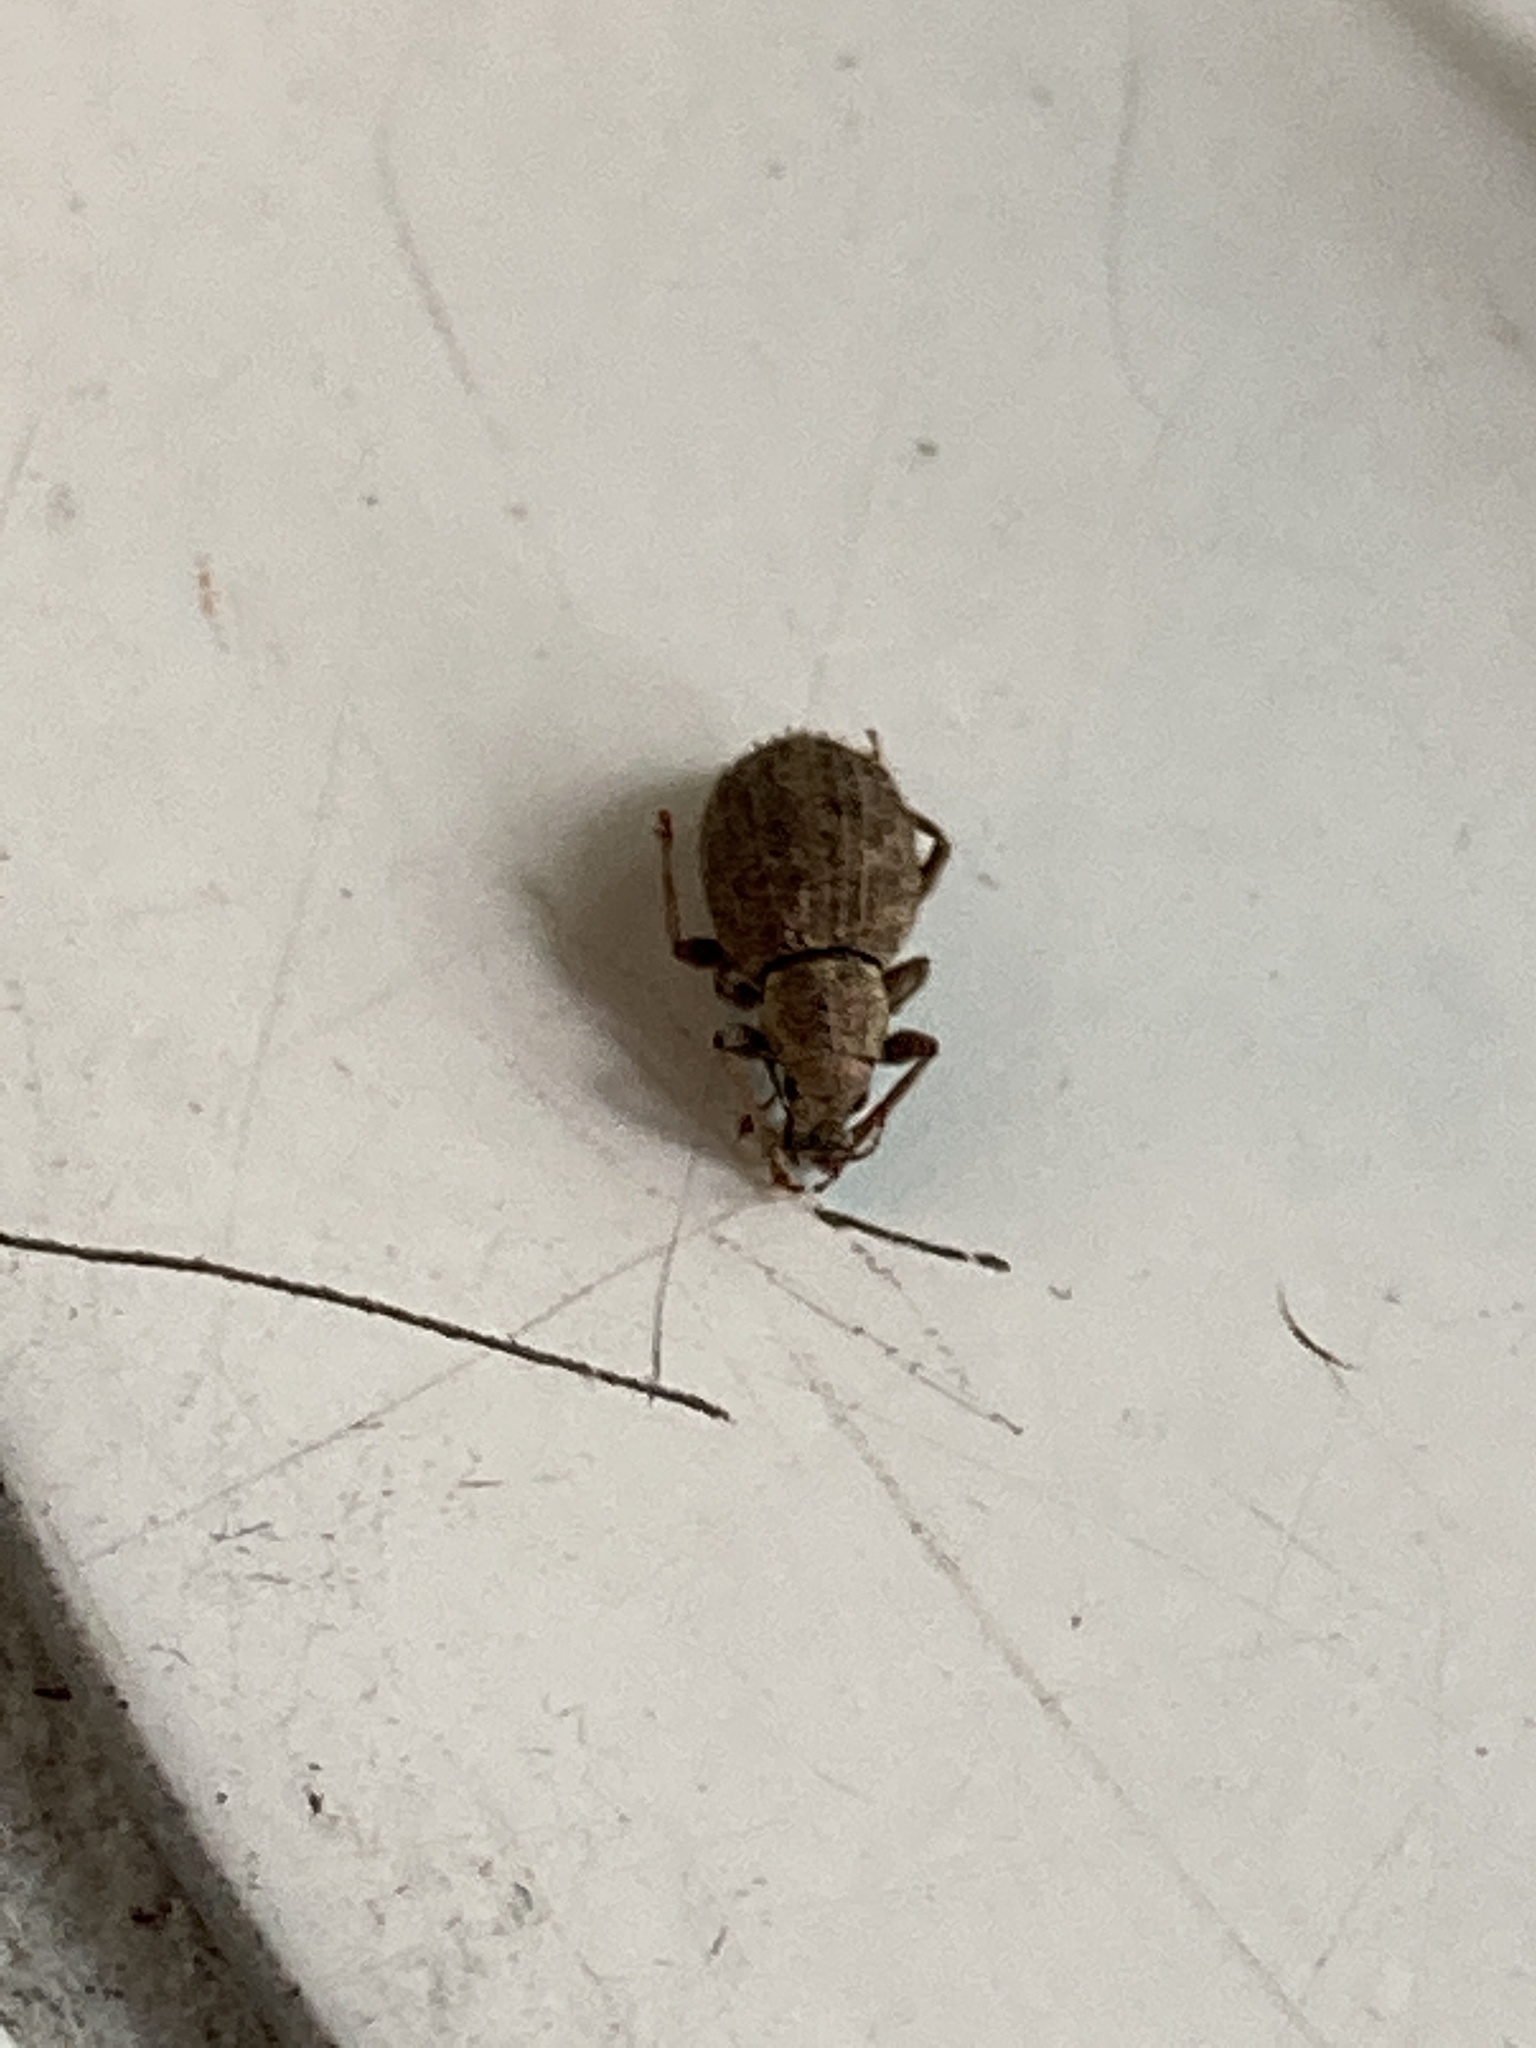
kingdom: Animalia
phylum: Arthropoda
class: Insecta
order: Coleoptera
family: Curculionidae
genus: Sciaphilus
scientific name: Sciaphilus asperatus
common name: Weevil
